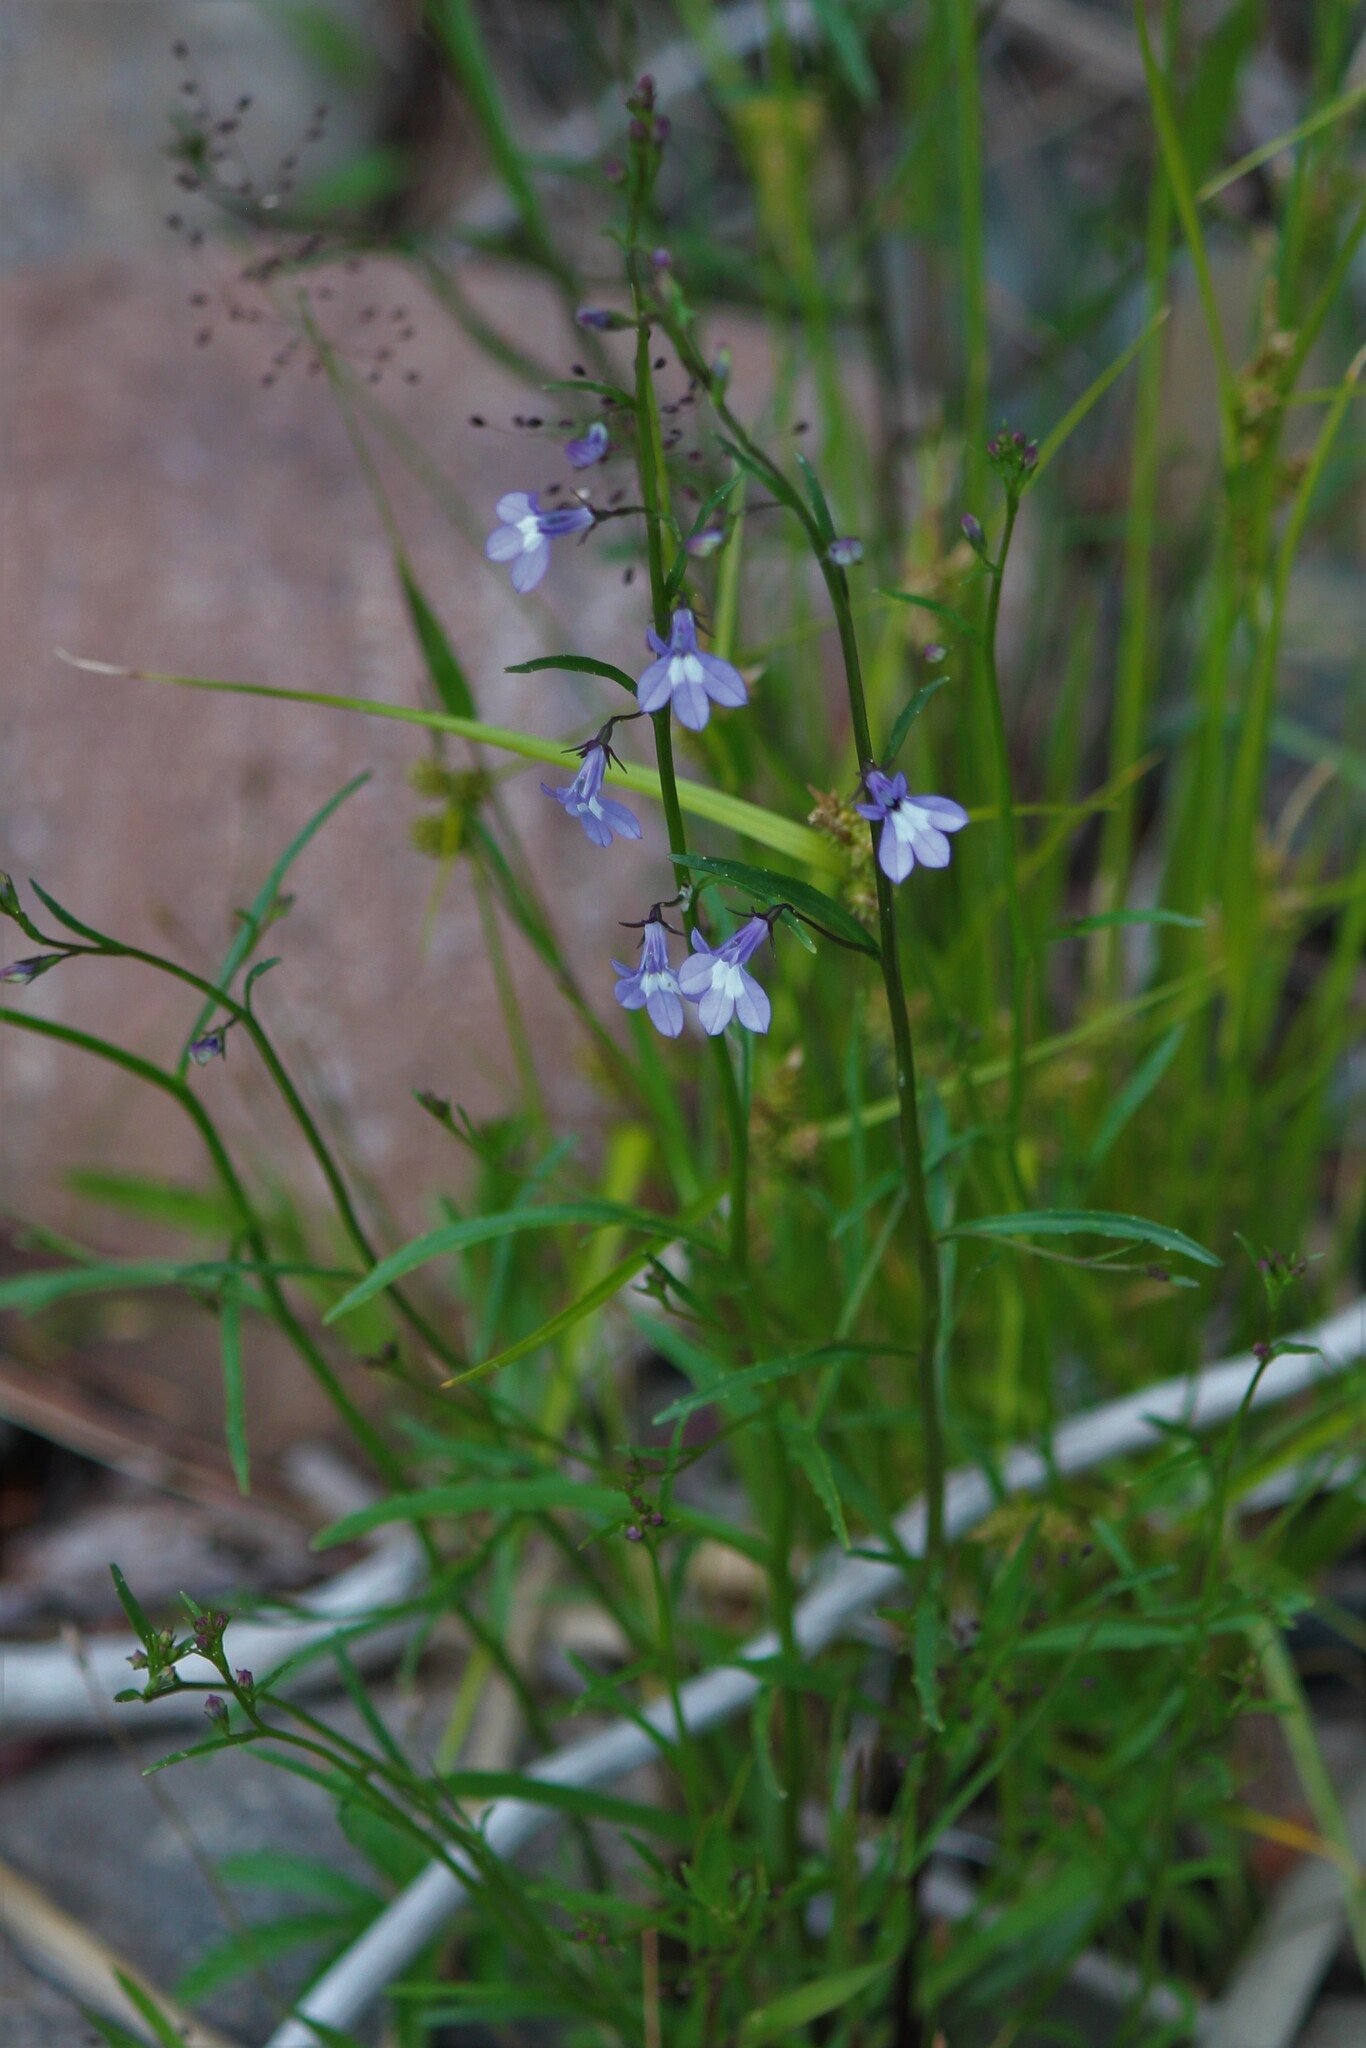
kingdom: Plantae
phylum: Tracheophyta
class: Magnoliopsida
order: Asterales
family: Campanulaceae
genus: Lobelia
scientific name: Lobelia kalmii
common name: Kalm's lobelia
